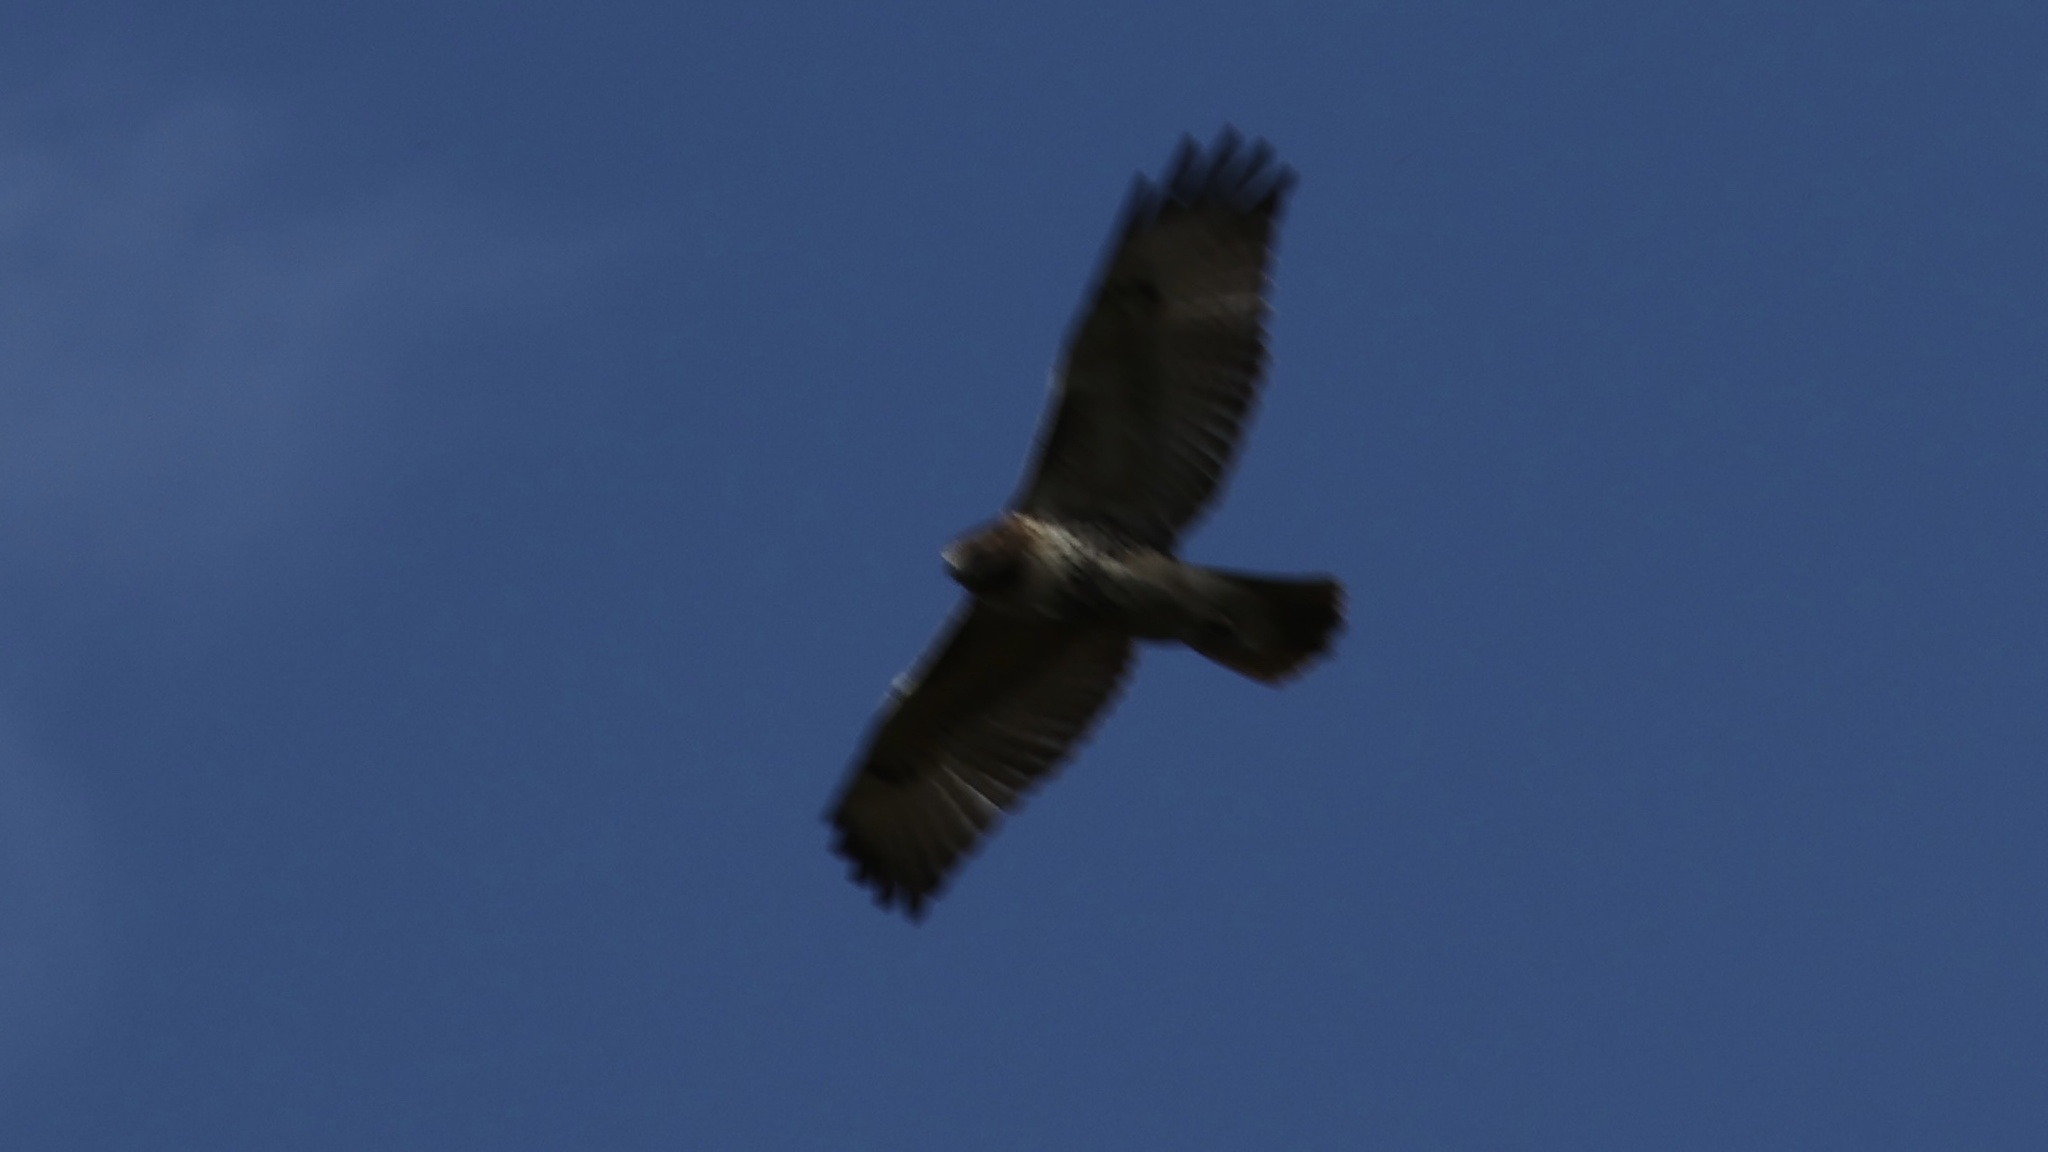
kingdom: Animalia
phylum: Chordata
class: Aves
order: Accipitriformes
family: Accipitridae
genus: Buteo
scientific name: Buteo jamaicensis
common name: Red-tailed hawk
